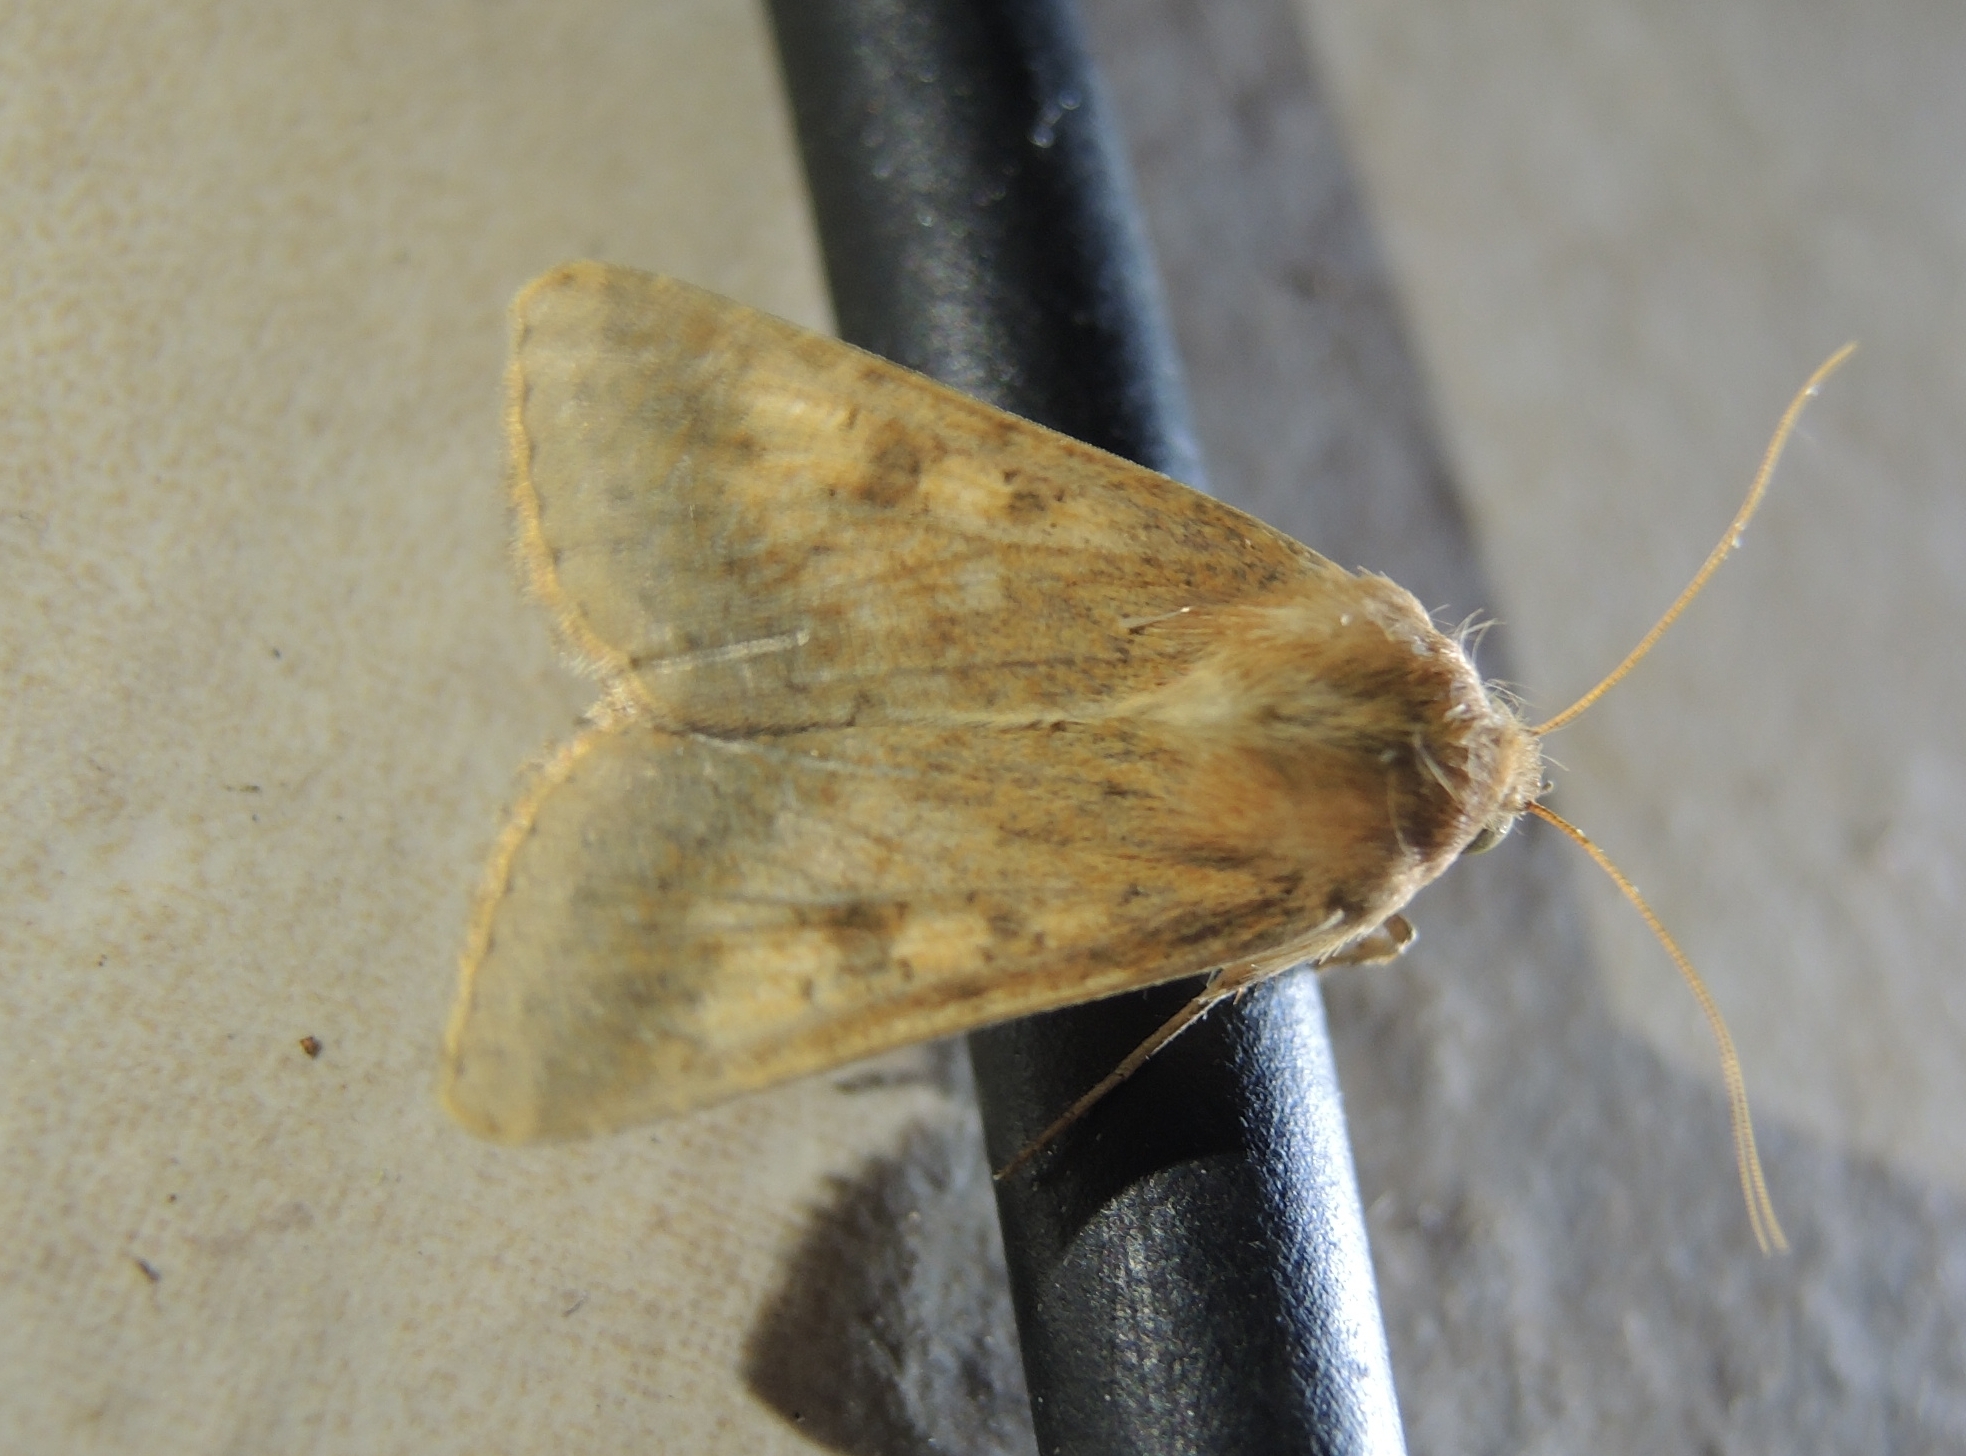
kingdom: Animalia
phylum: Arthropoda
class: Insecta
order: Lepidoptera
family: Noctuidae
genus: Helicoverpa
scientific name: Helicoverpa armigera
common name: Cotton bollworm
